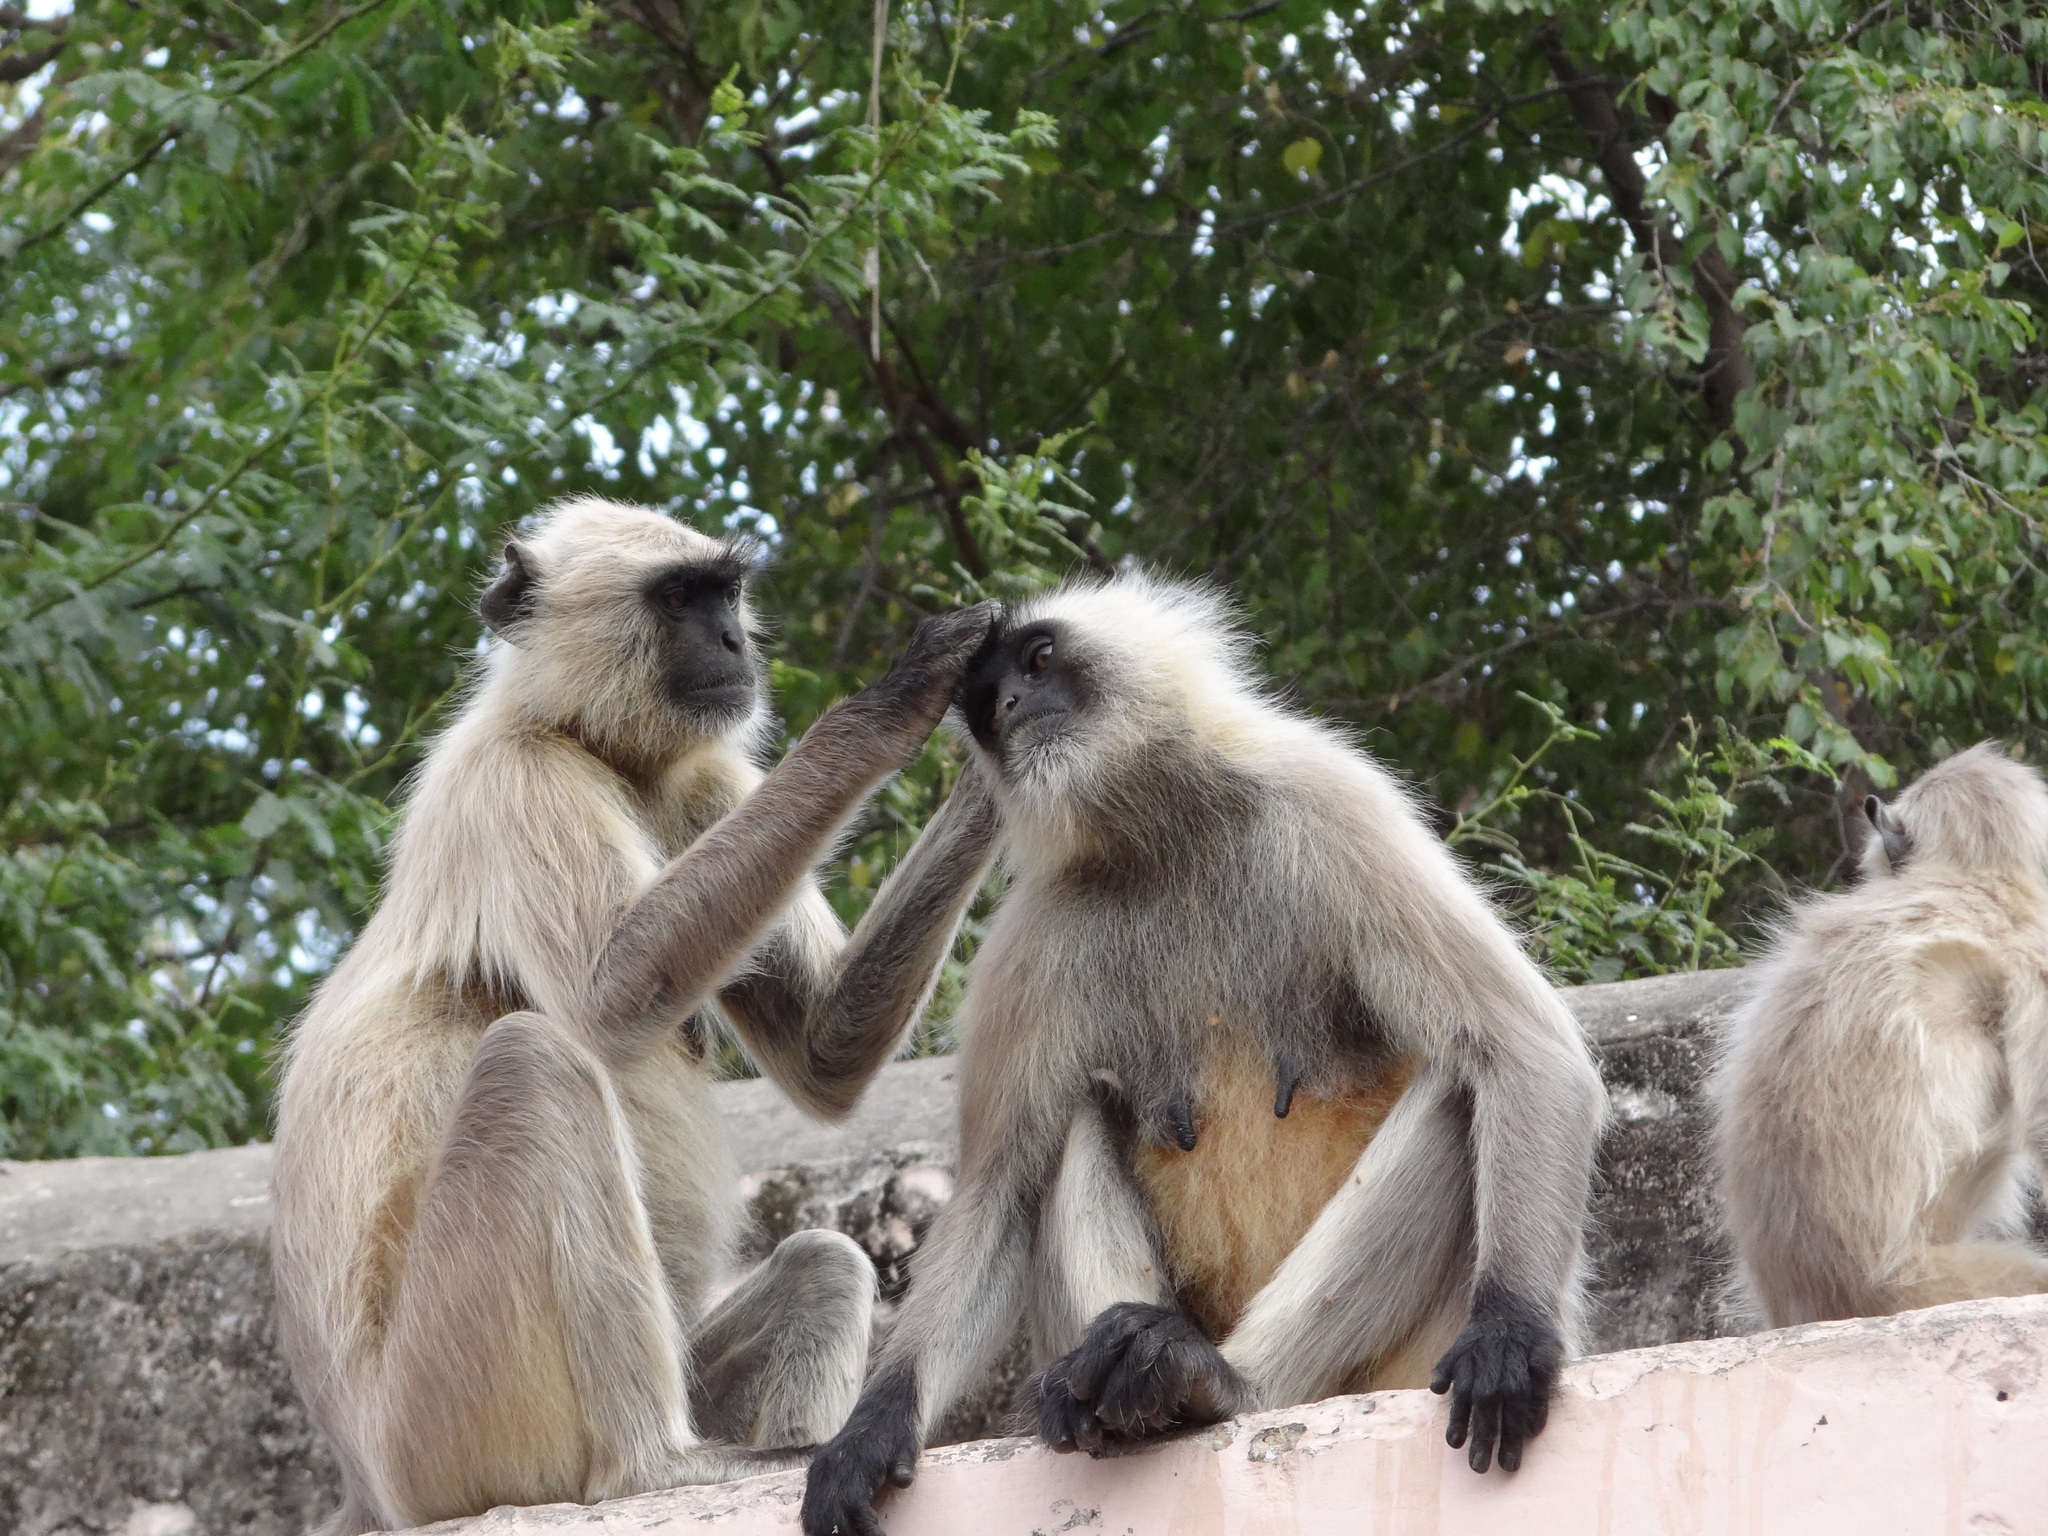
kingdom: Animalia
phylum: Chordata
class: Mammalia
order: Primates
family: Cercopithecidae
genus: Semnopithecus
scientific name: Semnopithecus entellus
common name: Northern plains gray langur
